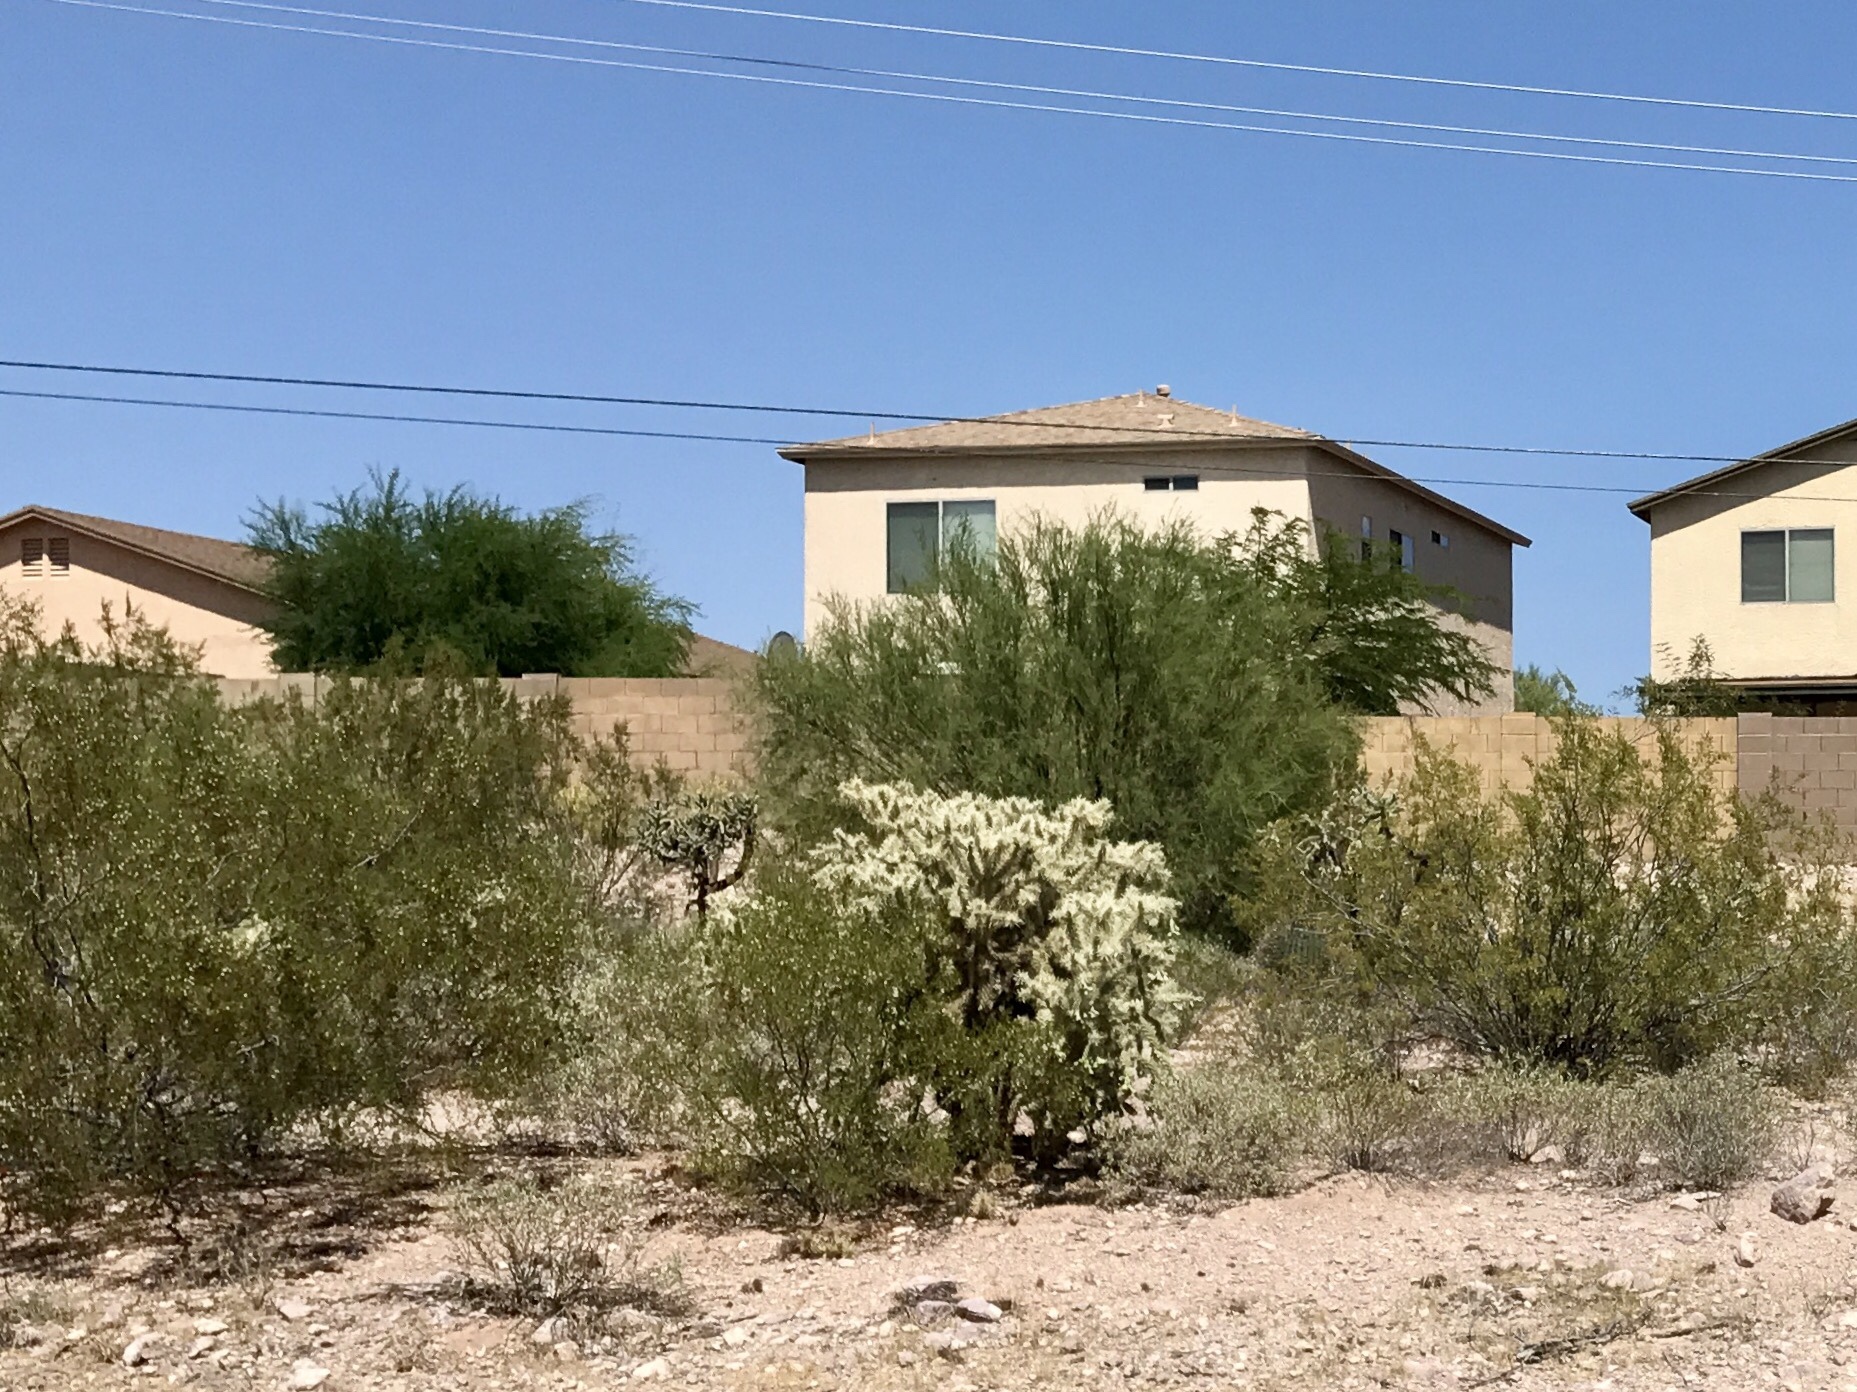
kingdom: Plantae
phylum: Tracheophyta
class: Magnoliopsida
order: Caryophyllales
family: Cactaceae
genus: Cylindropuntia
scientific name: Cylindropuntia fulgida
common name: Jumping cholla
